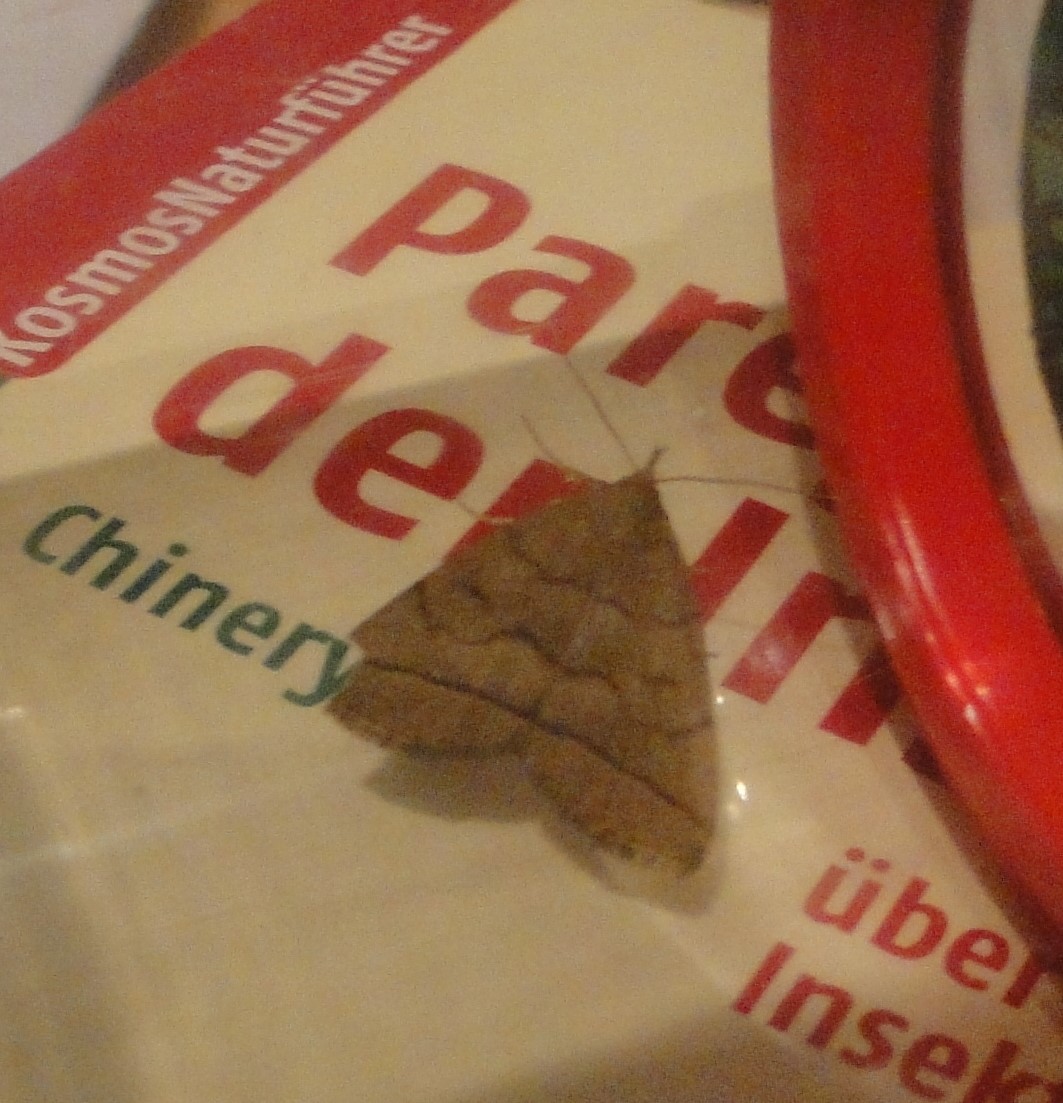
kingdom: Animalia
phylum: Arthropoda
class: Insecta
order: Lepidoptera
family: Erebidae
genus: Herminia
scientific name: Herminia tarsipennalis
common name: Fan-foot
